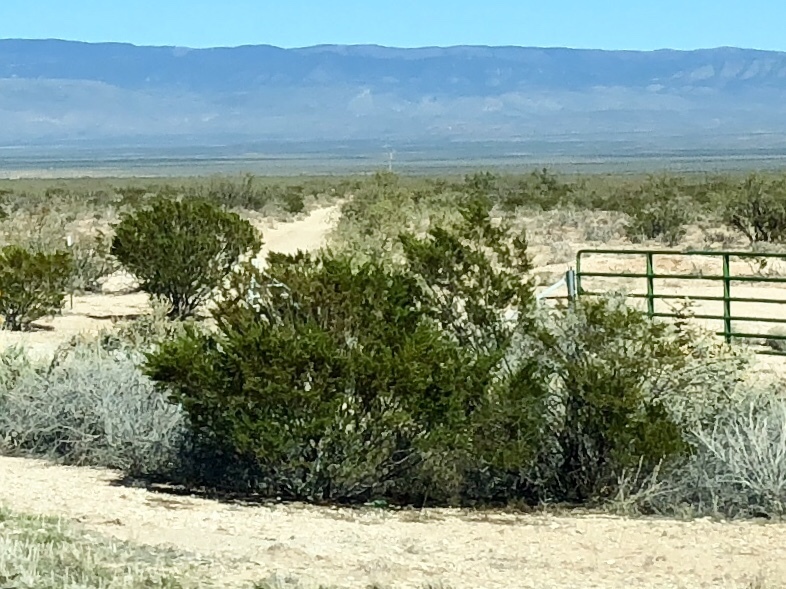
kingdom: Plantae
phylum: Tracheophyta
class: Magnoliopsida
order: Zygophyllales
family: Zygophyllaceae
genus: Larrea
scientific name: Larrea tridentata
